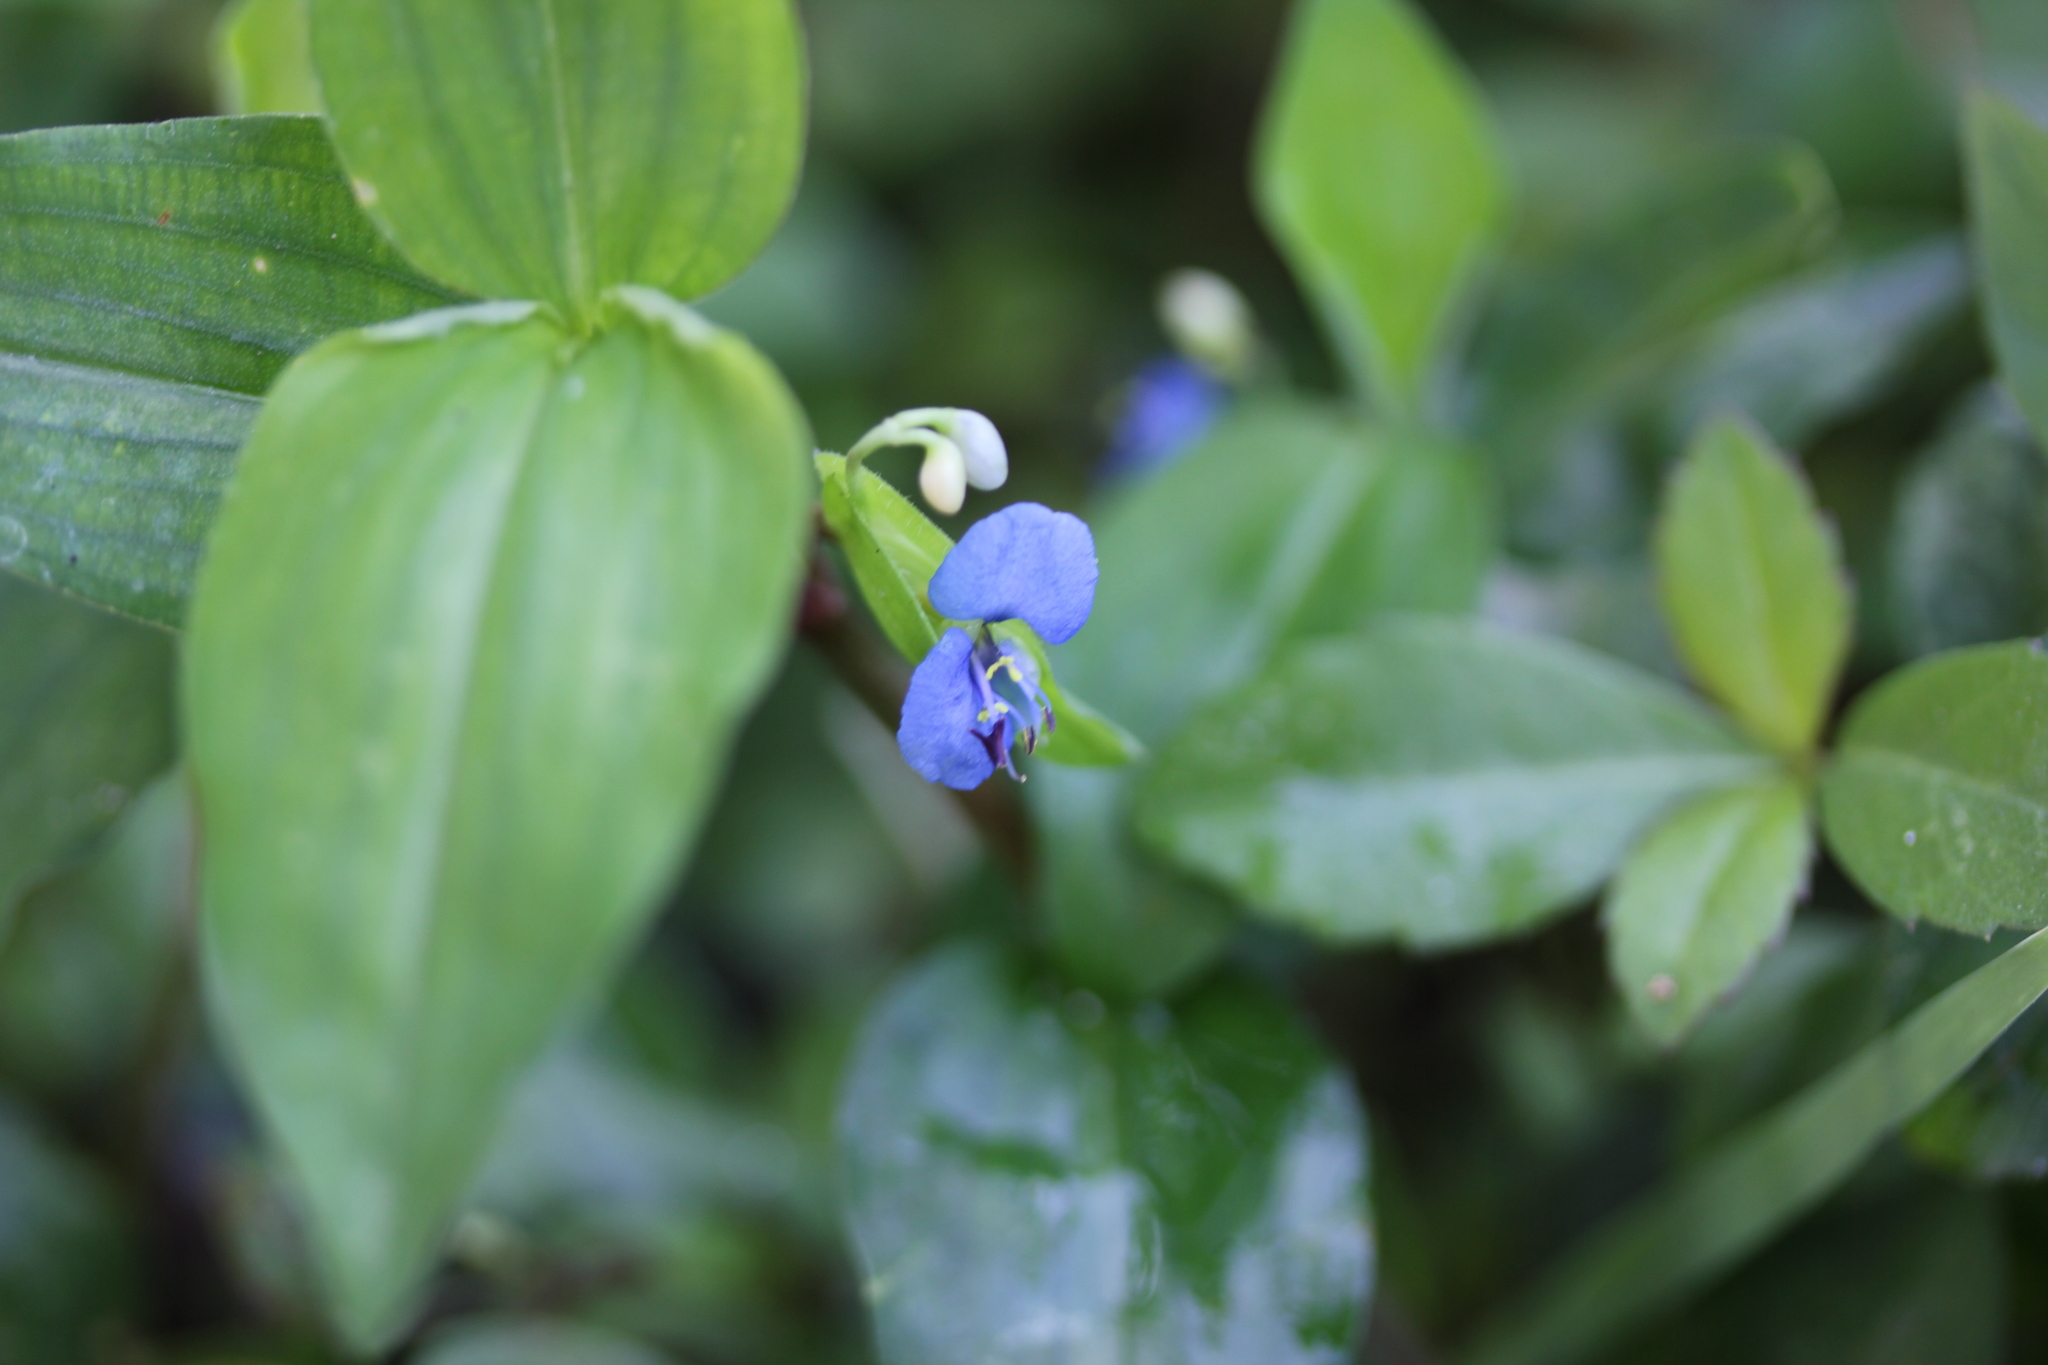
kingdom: Plantae
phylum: Tracheophyta
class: Liliopsida
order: Commelinales
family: Commelinaceae
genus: Commelina
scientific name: Commelina diffusa
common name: Climbing dayflower
